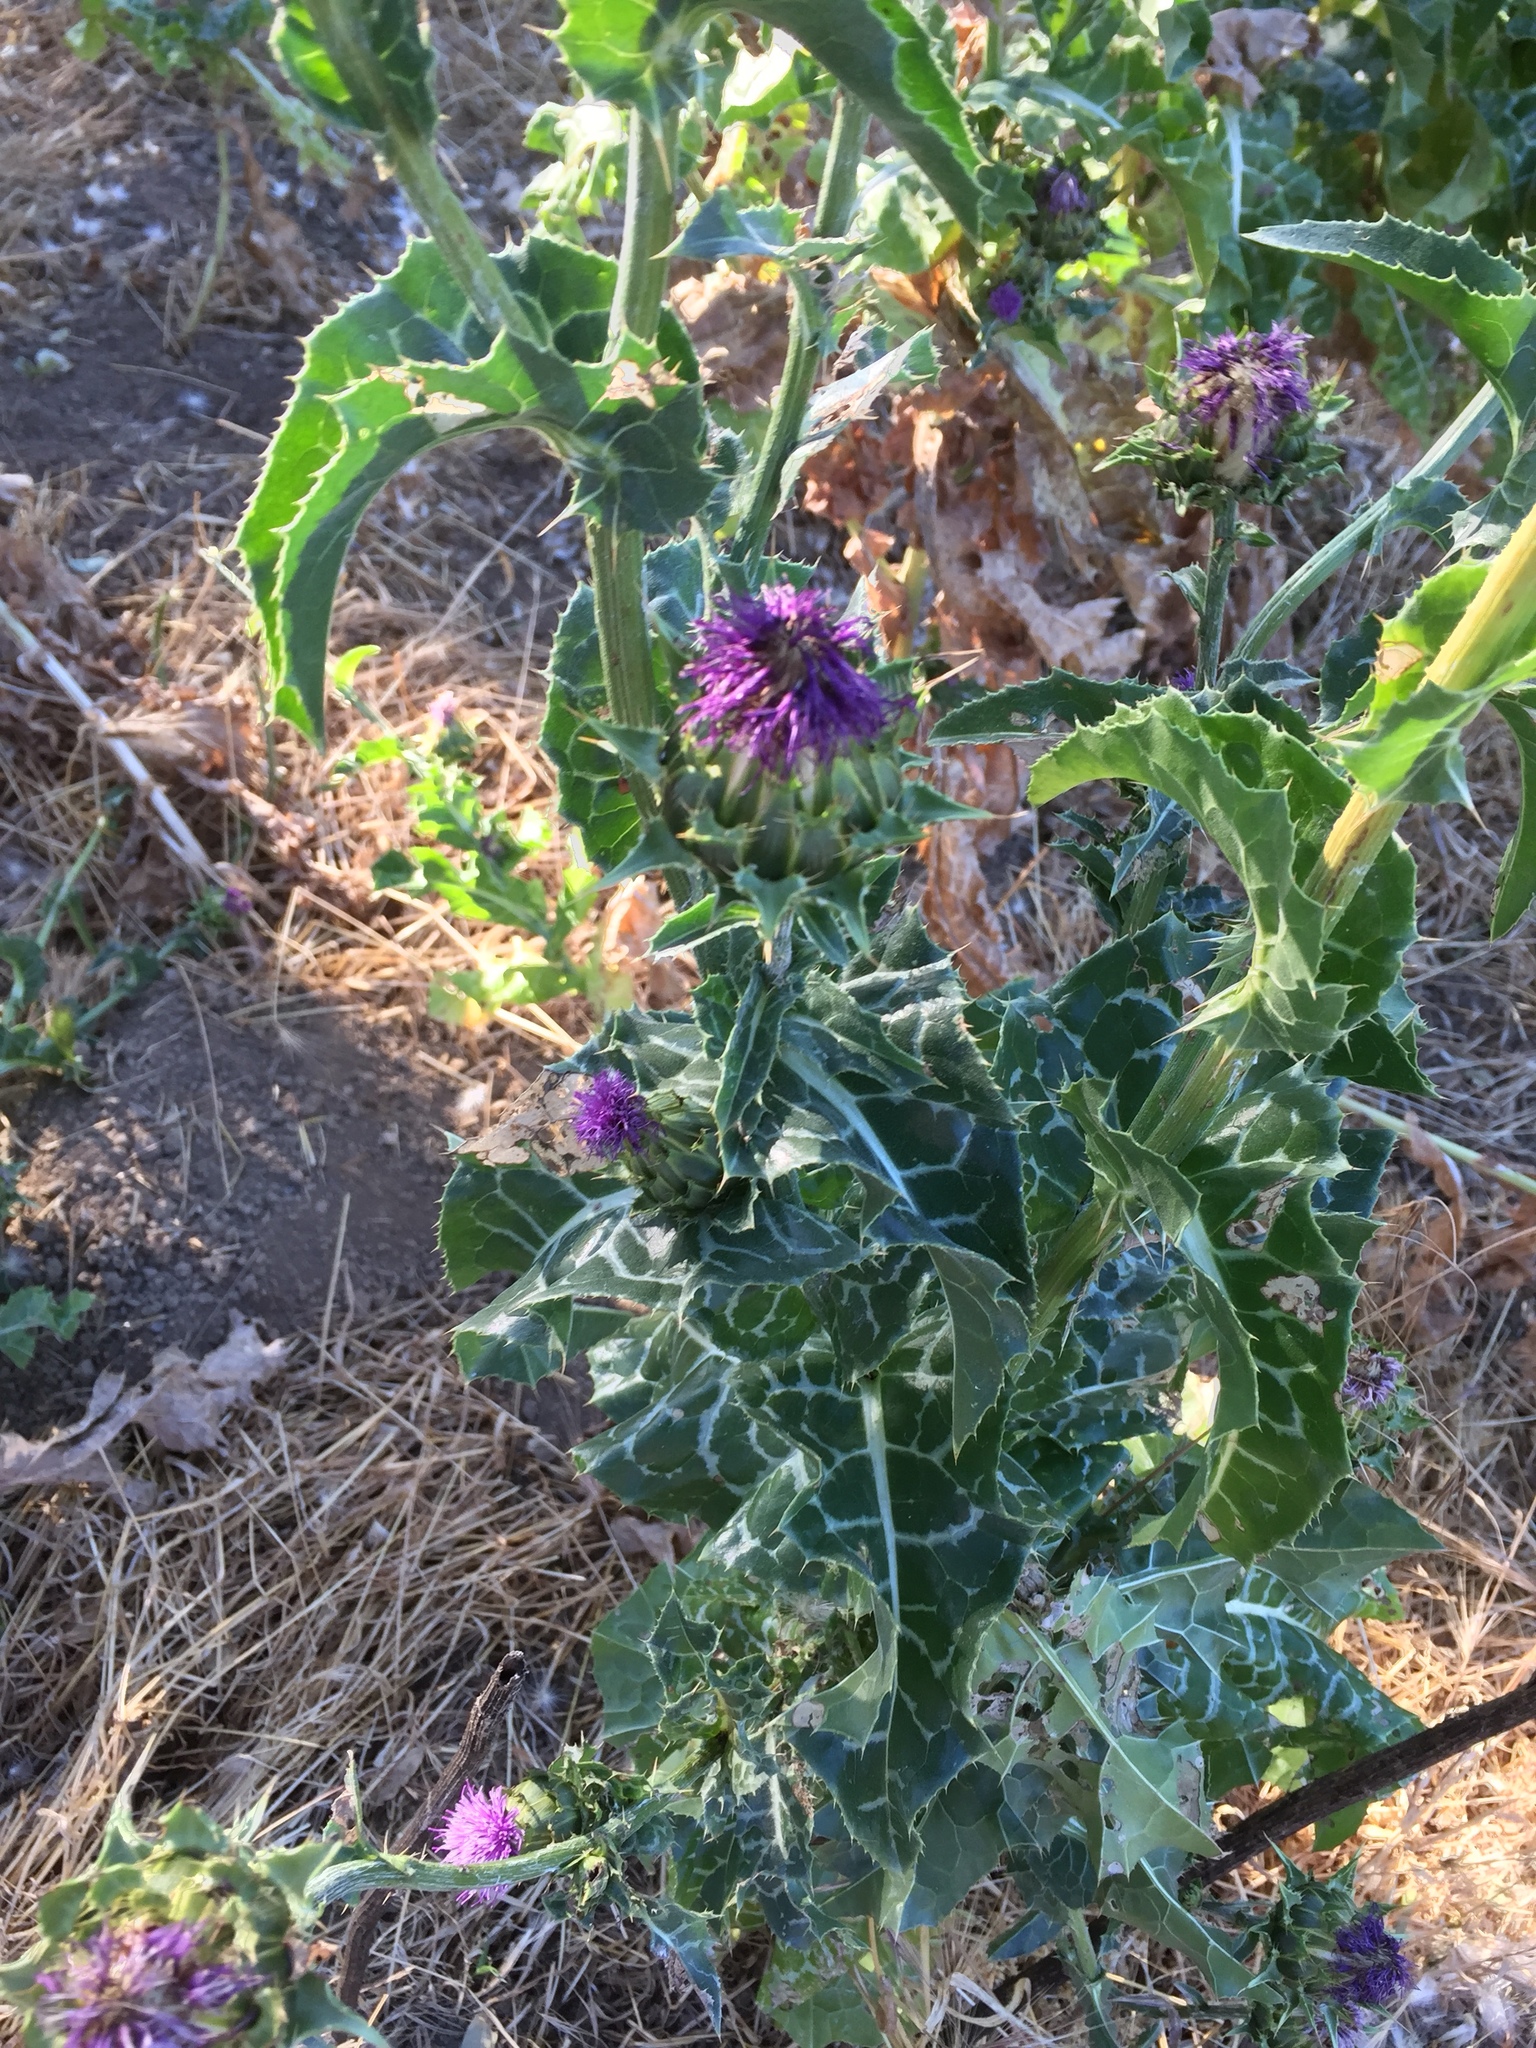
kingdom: Plantae
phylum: Tracheophyta
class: Magnoliopsida
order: Asterales
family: Asteraceae
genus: Silybum
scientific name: Silybum marianum
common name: Milk thistle
